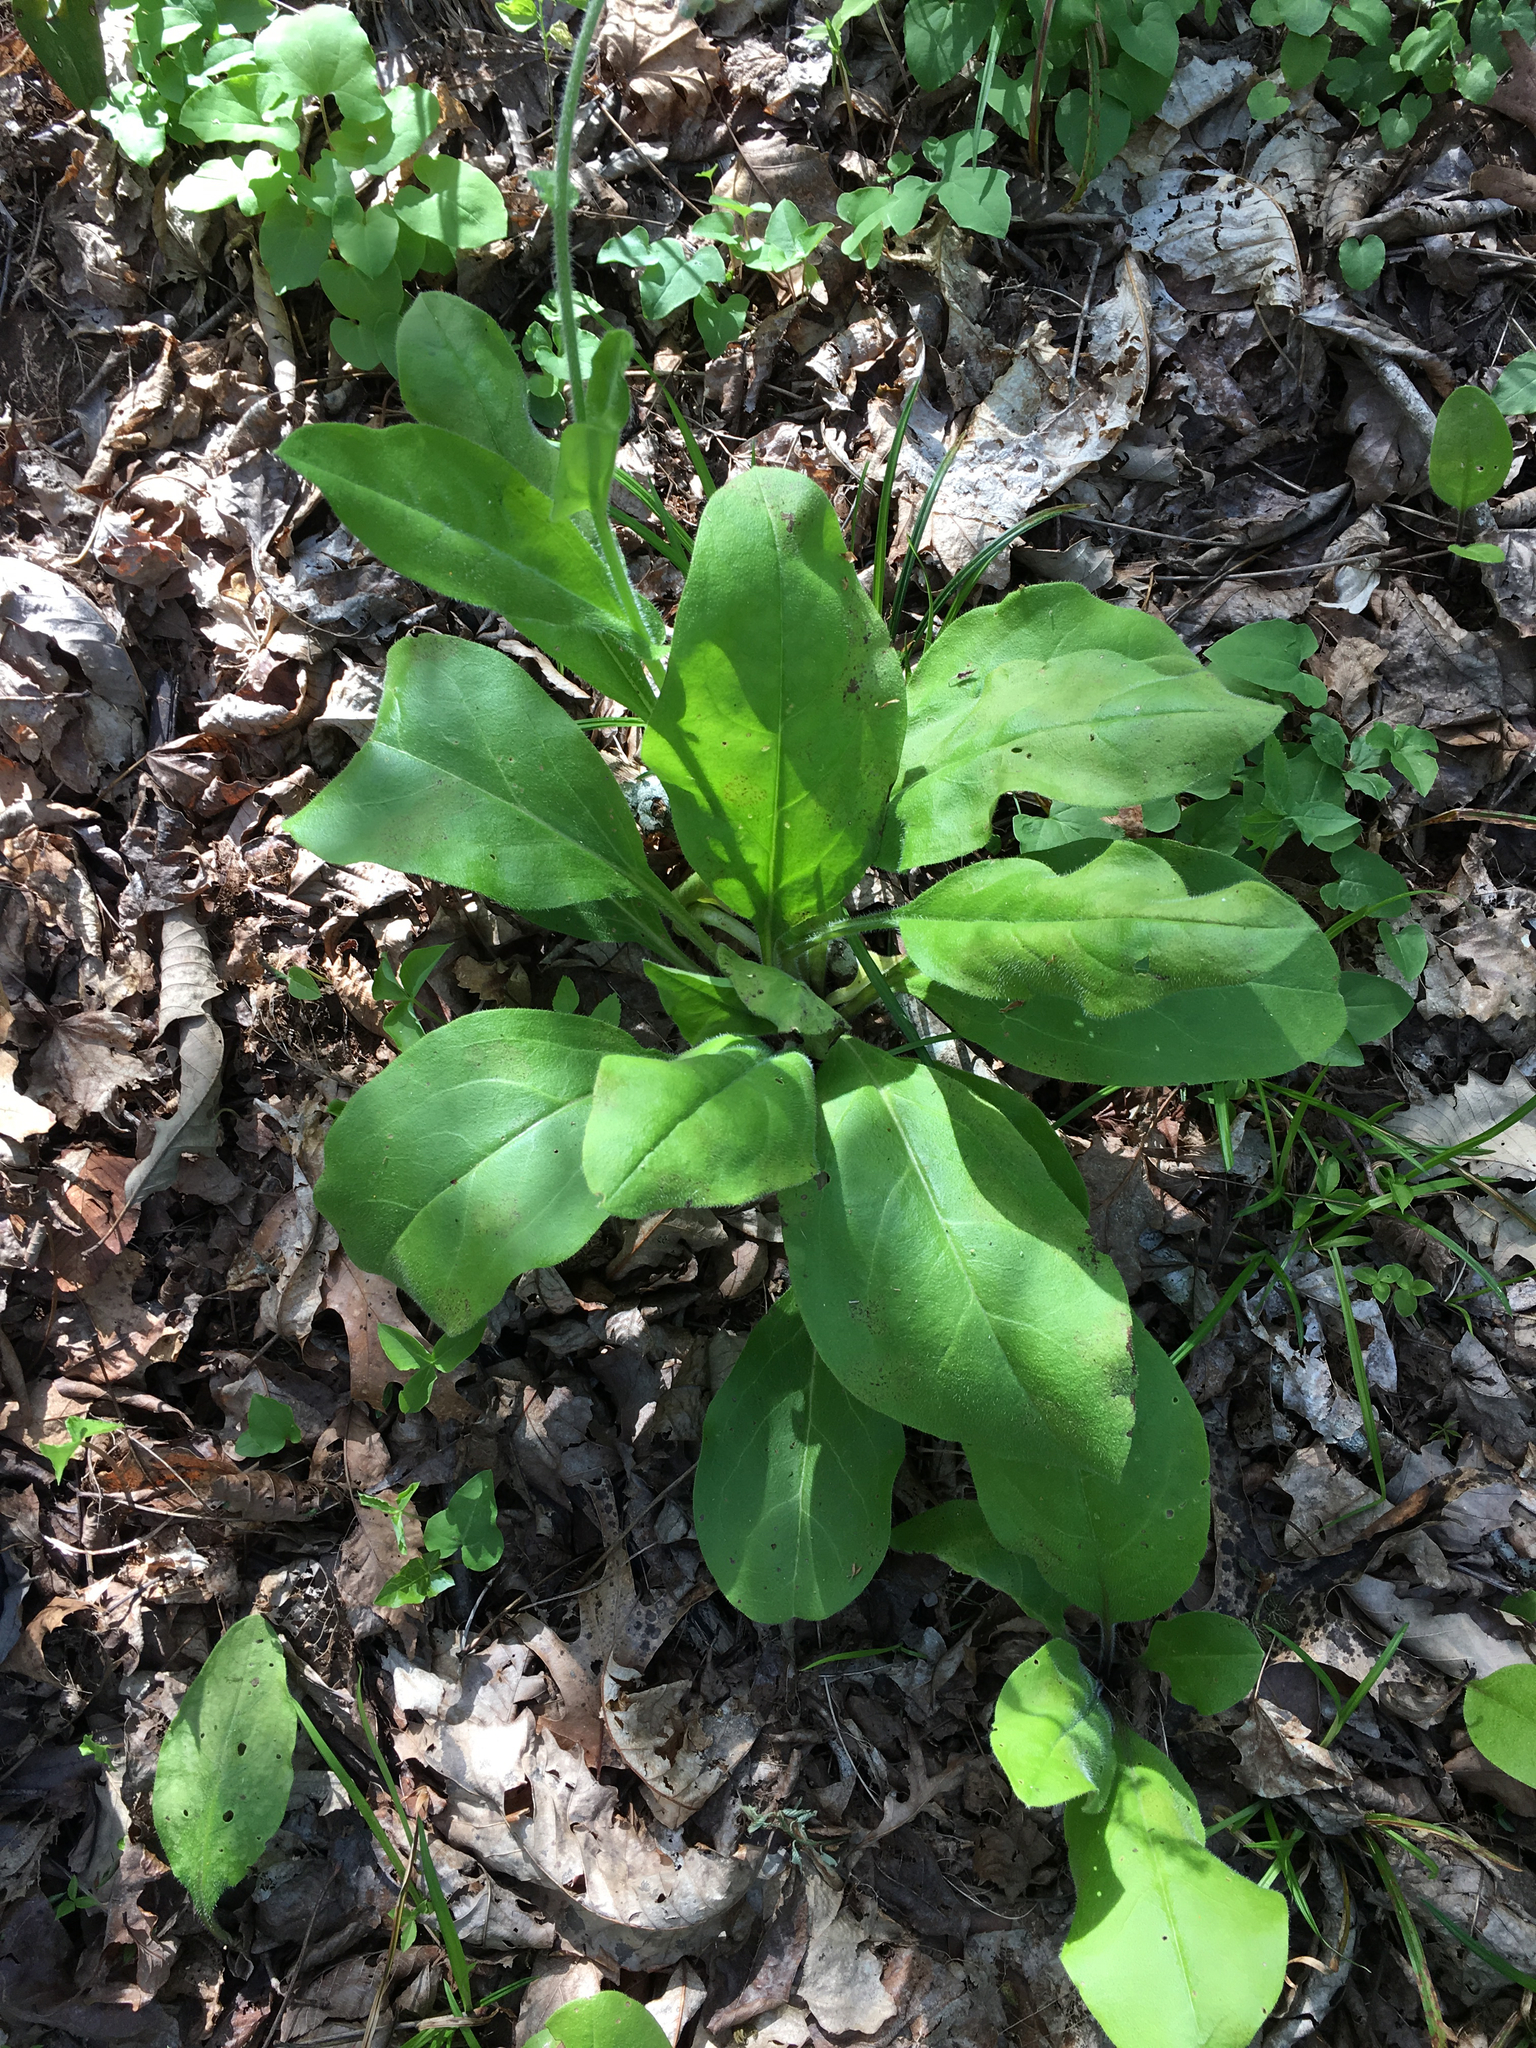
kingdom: Plantae
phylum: Tracheophyta
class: Magnoliopsida
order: Boraginales
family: Boraginaceae
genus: Andersonglossum
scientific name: Andersonglossum virginianum
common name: Wild comfrey
